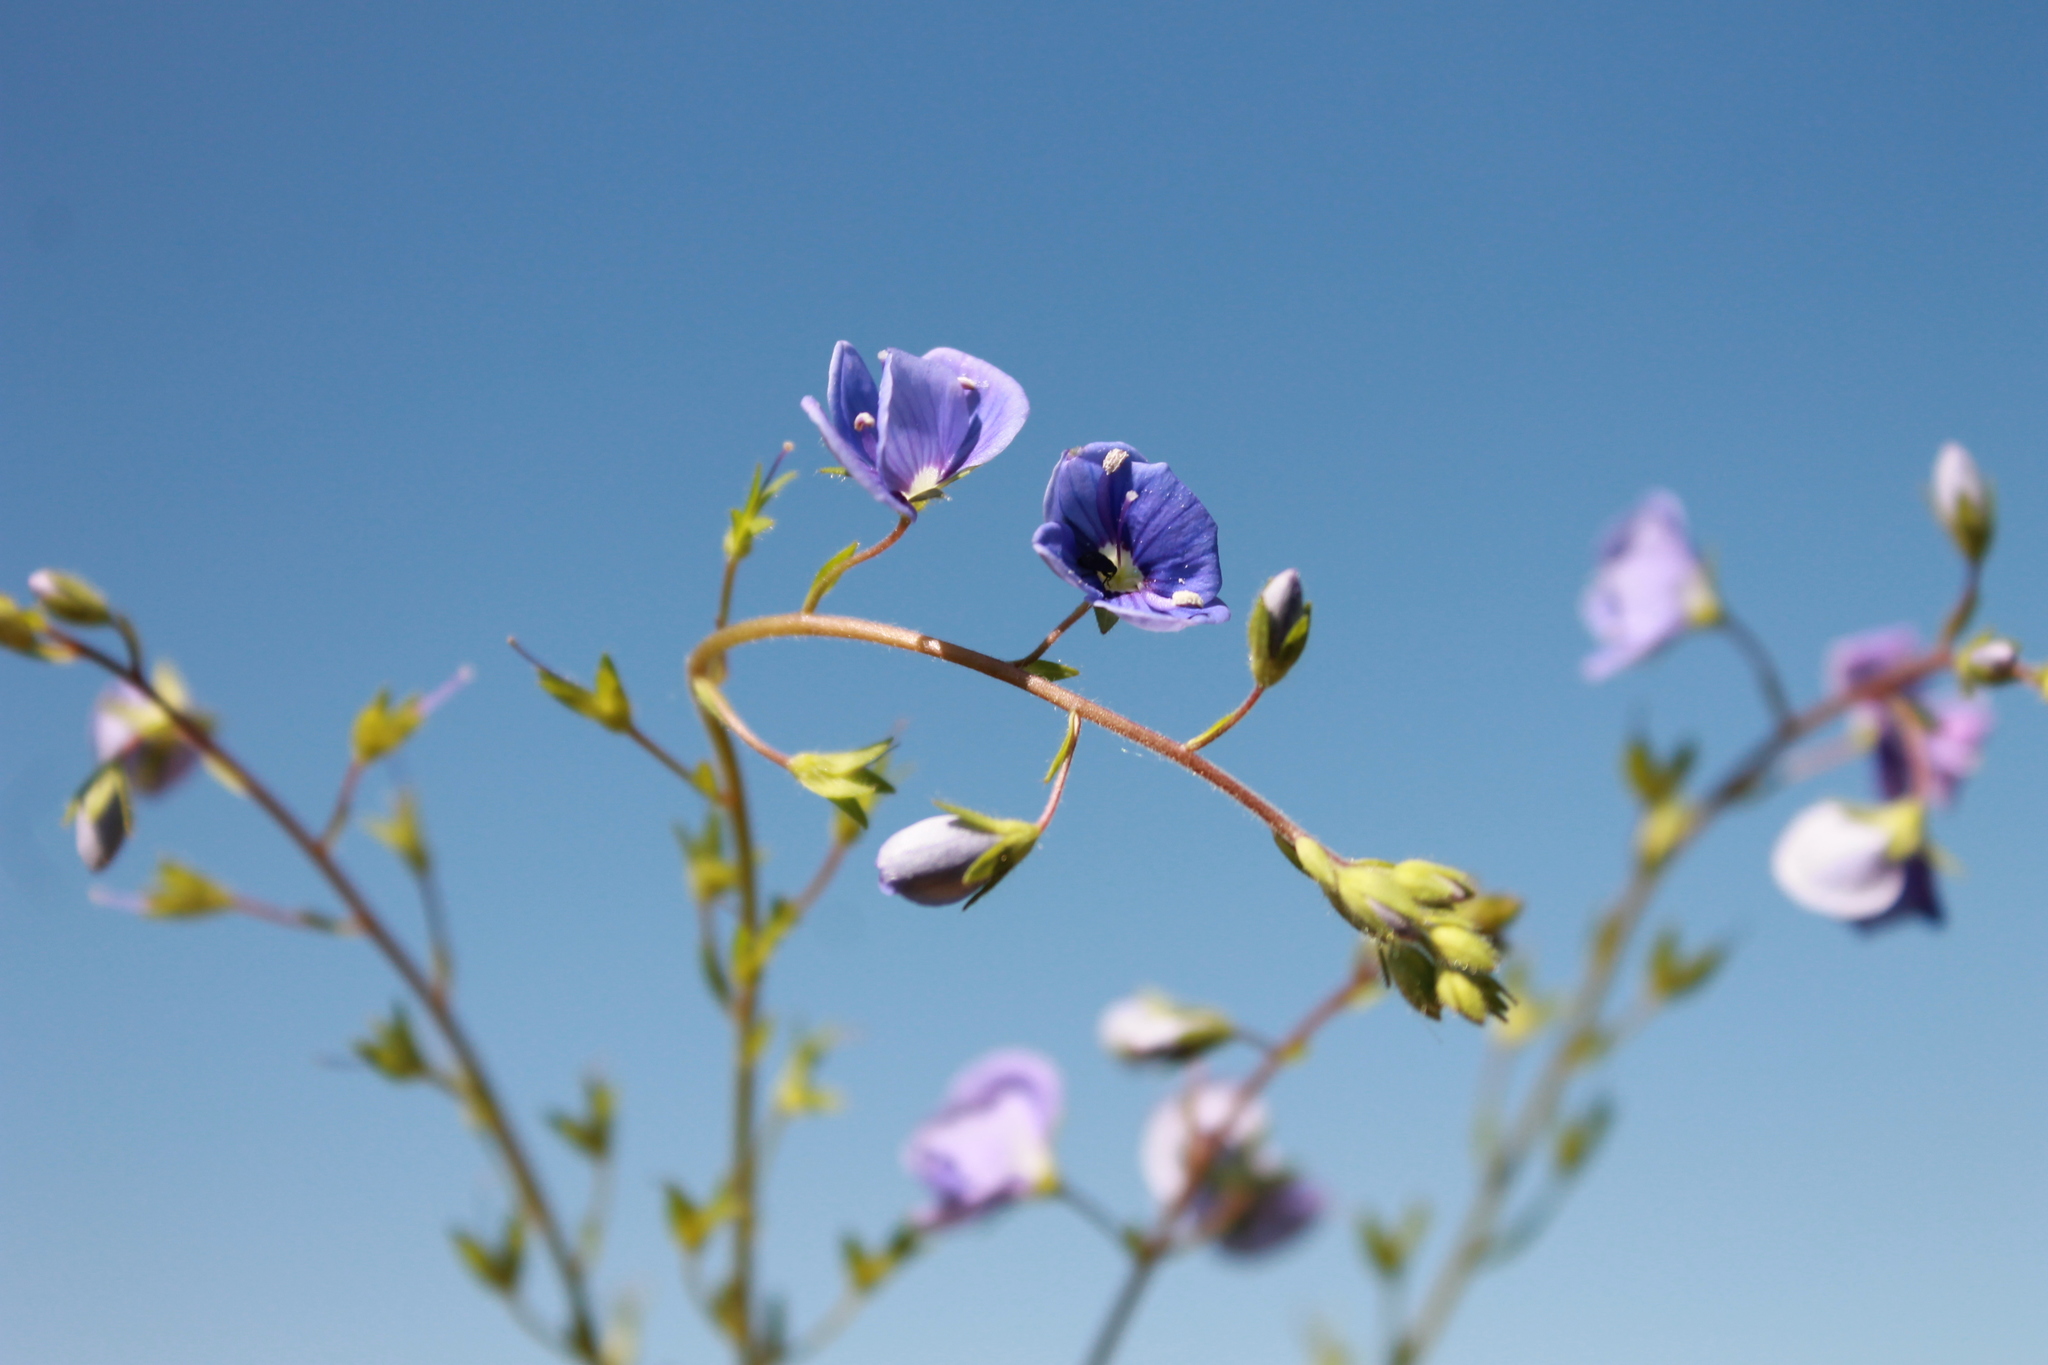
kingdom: Plantae
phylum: Tracheophyta
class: Magnoliopsida
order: Lamiales
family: Plantaginaceae
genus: Veronica
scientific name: Veronica chamaedrys
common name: Germander speedwell
